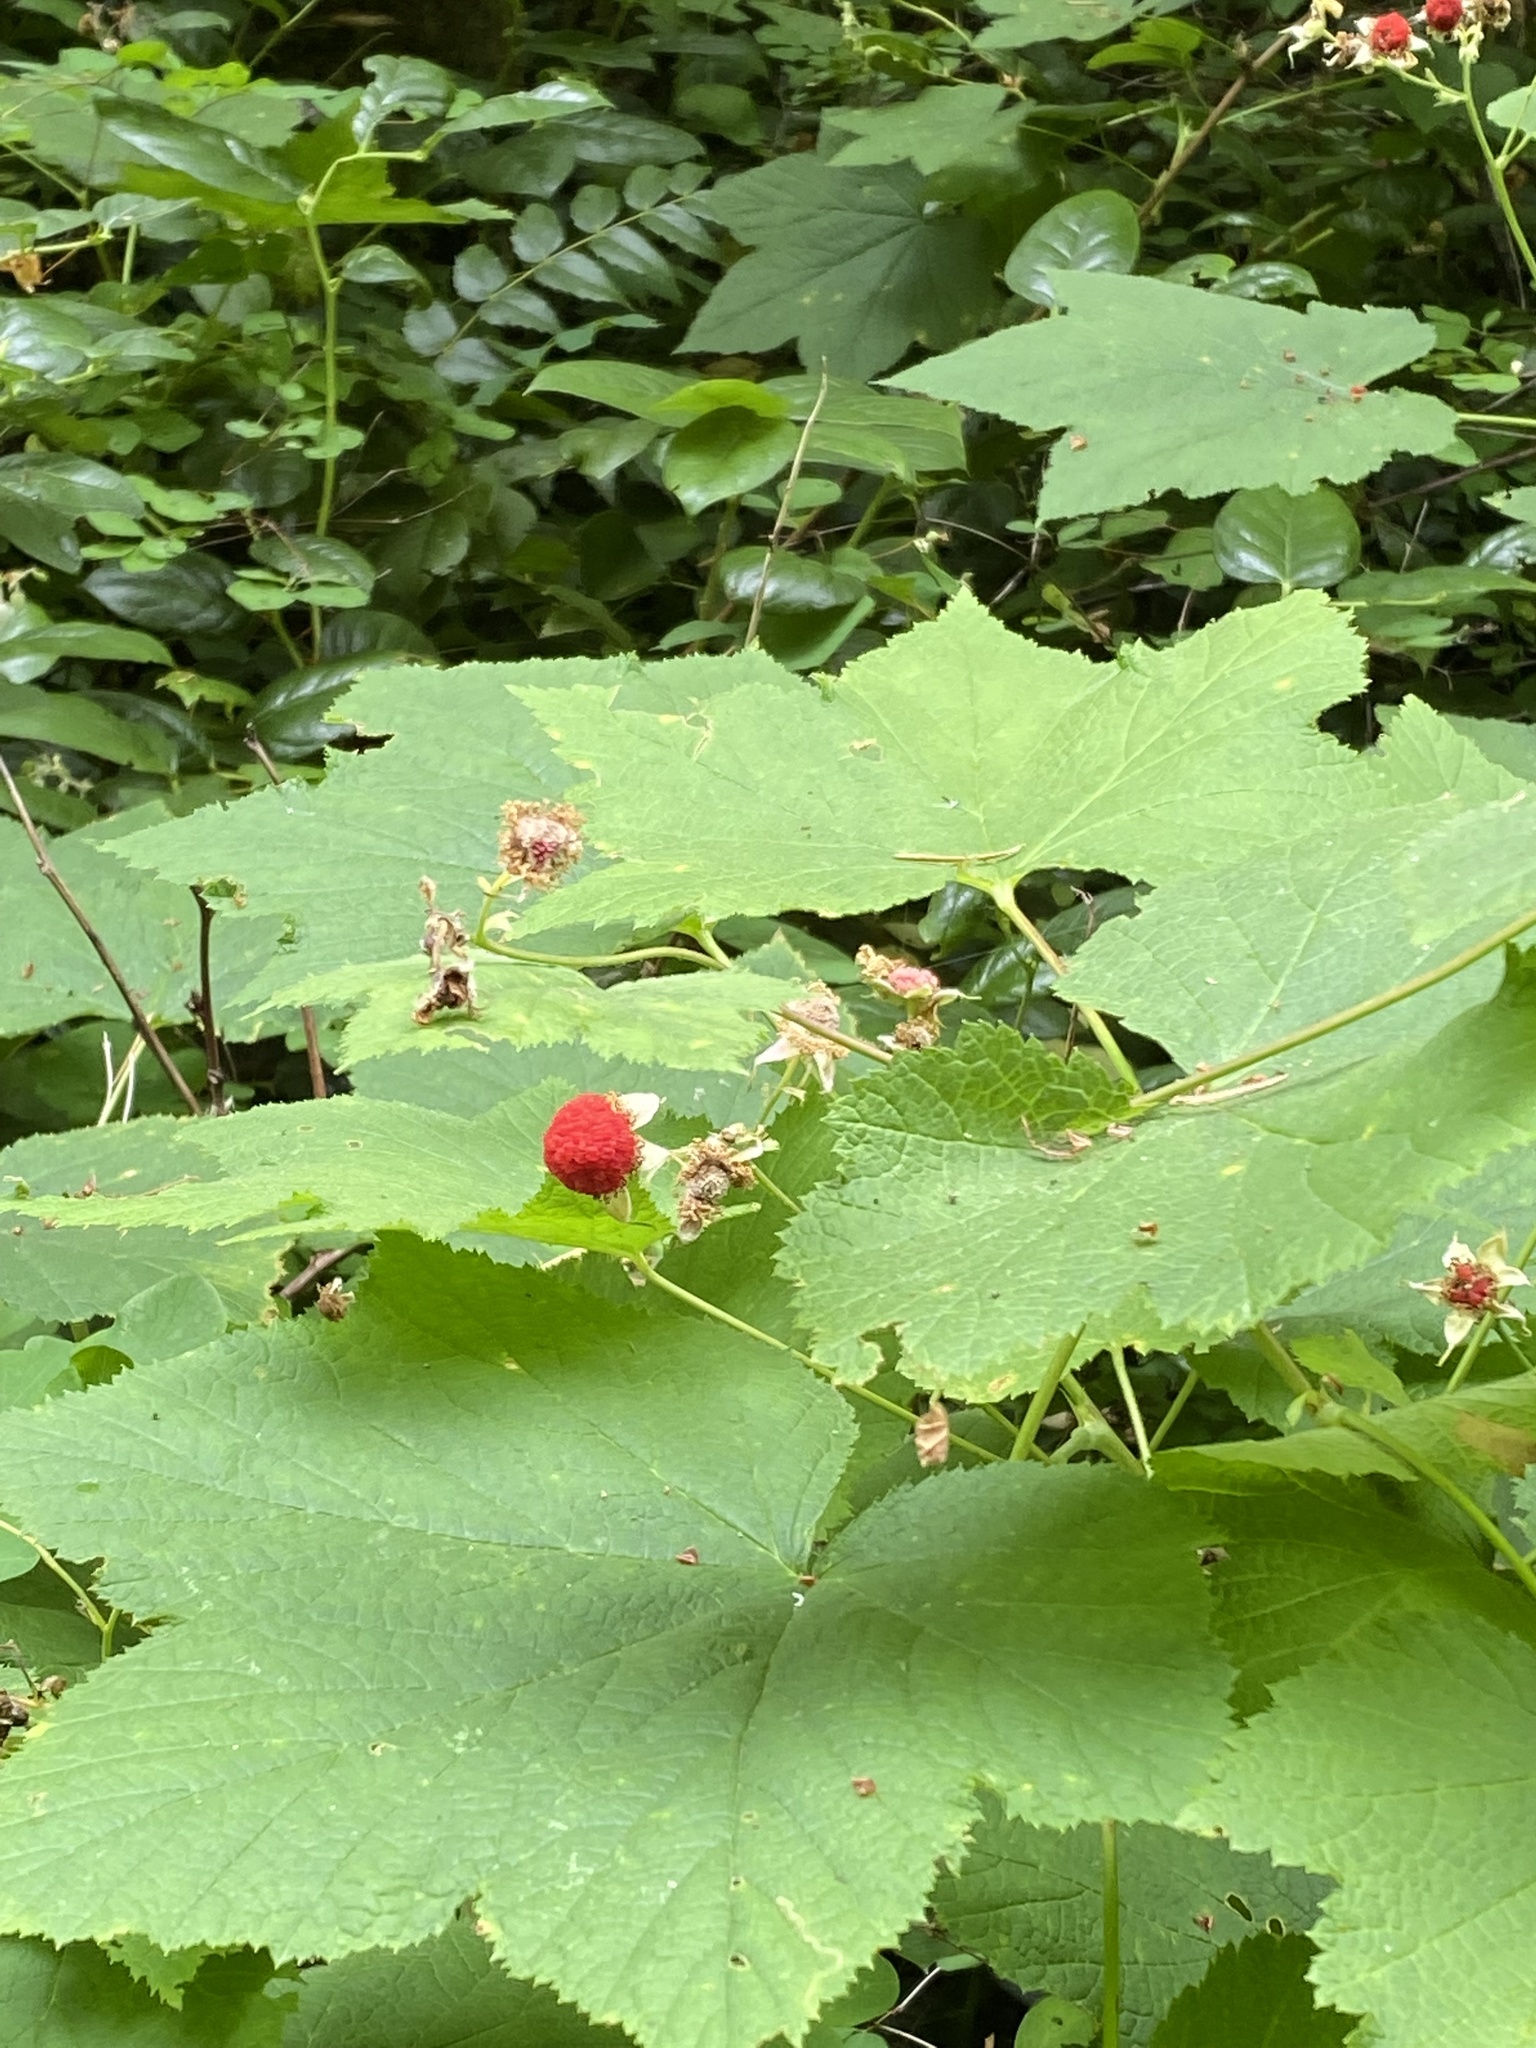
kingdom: Plantae
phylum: Tracheophyta
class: Magnoliopsida
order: Rosales
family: Rosaceae
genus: Rubus
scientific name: Rubus parviflorus
